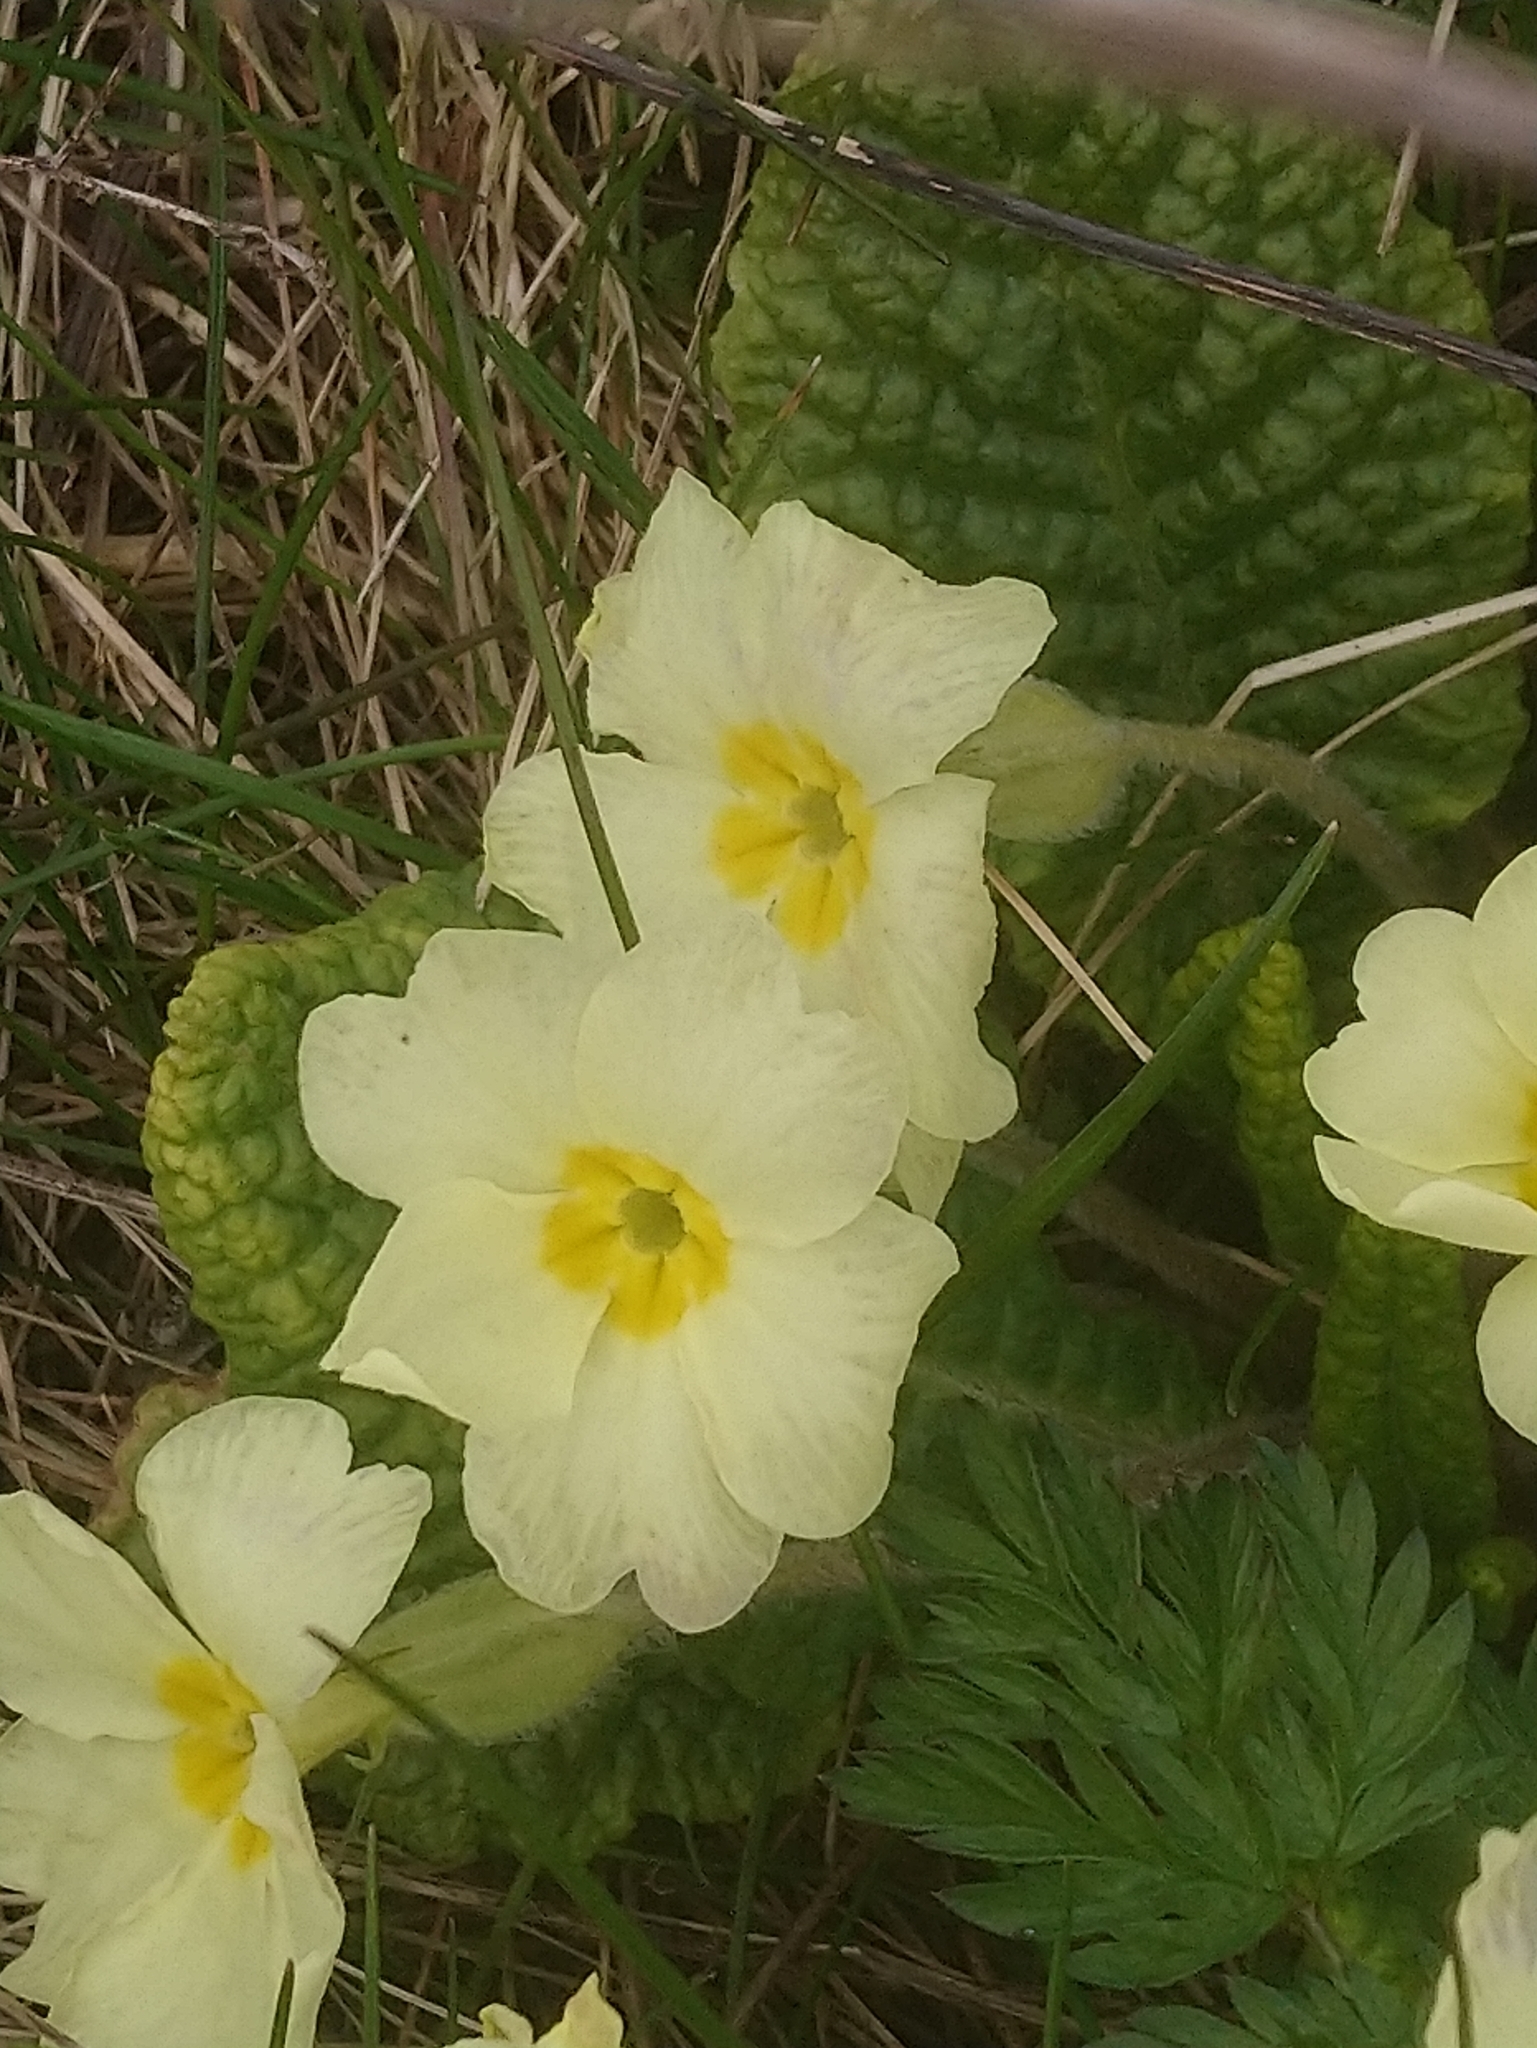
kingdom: Plantae
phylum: Tracheophyta
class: Magnoliopsida
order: Ericales
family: Primulaceae
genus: Primula
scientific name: Primula vulgaris
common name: Primrose
